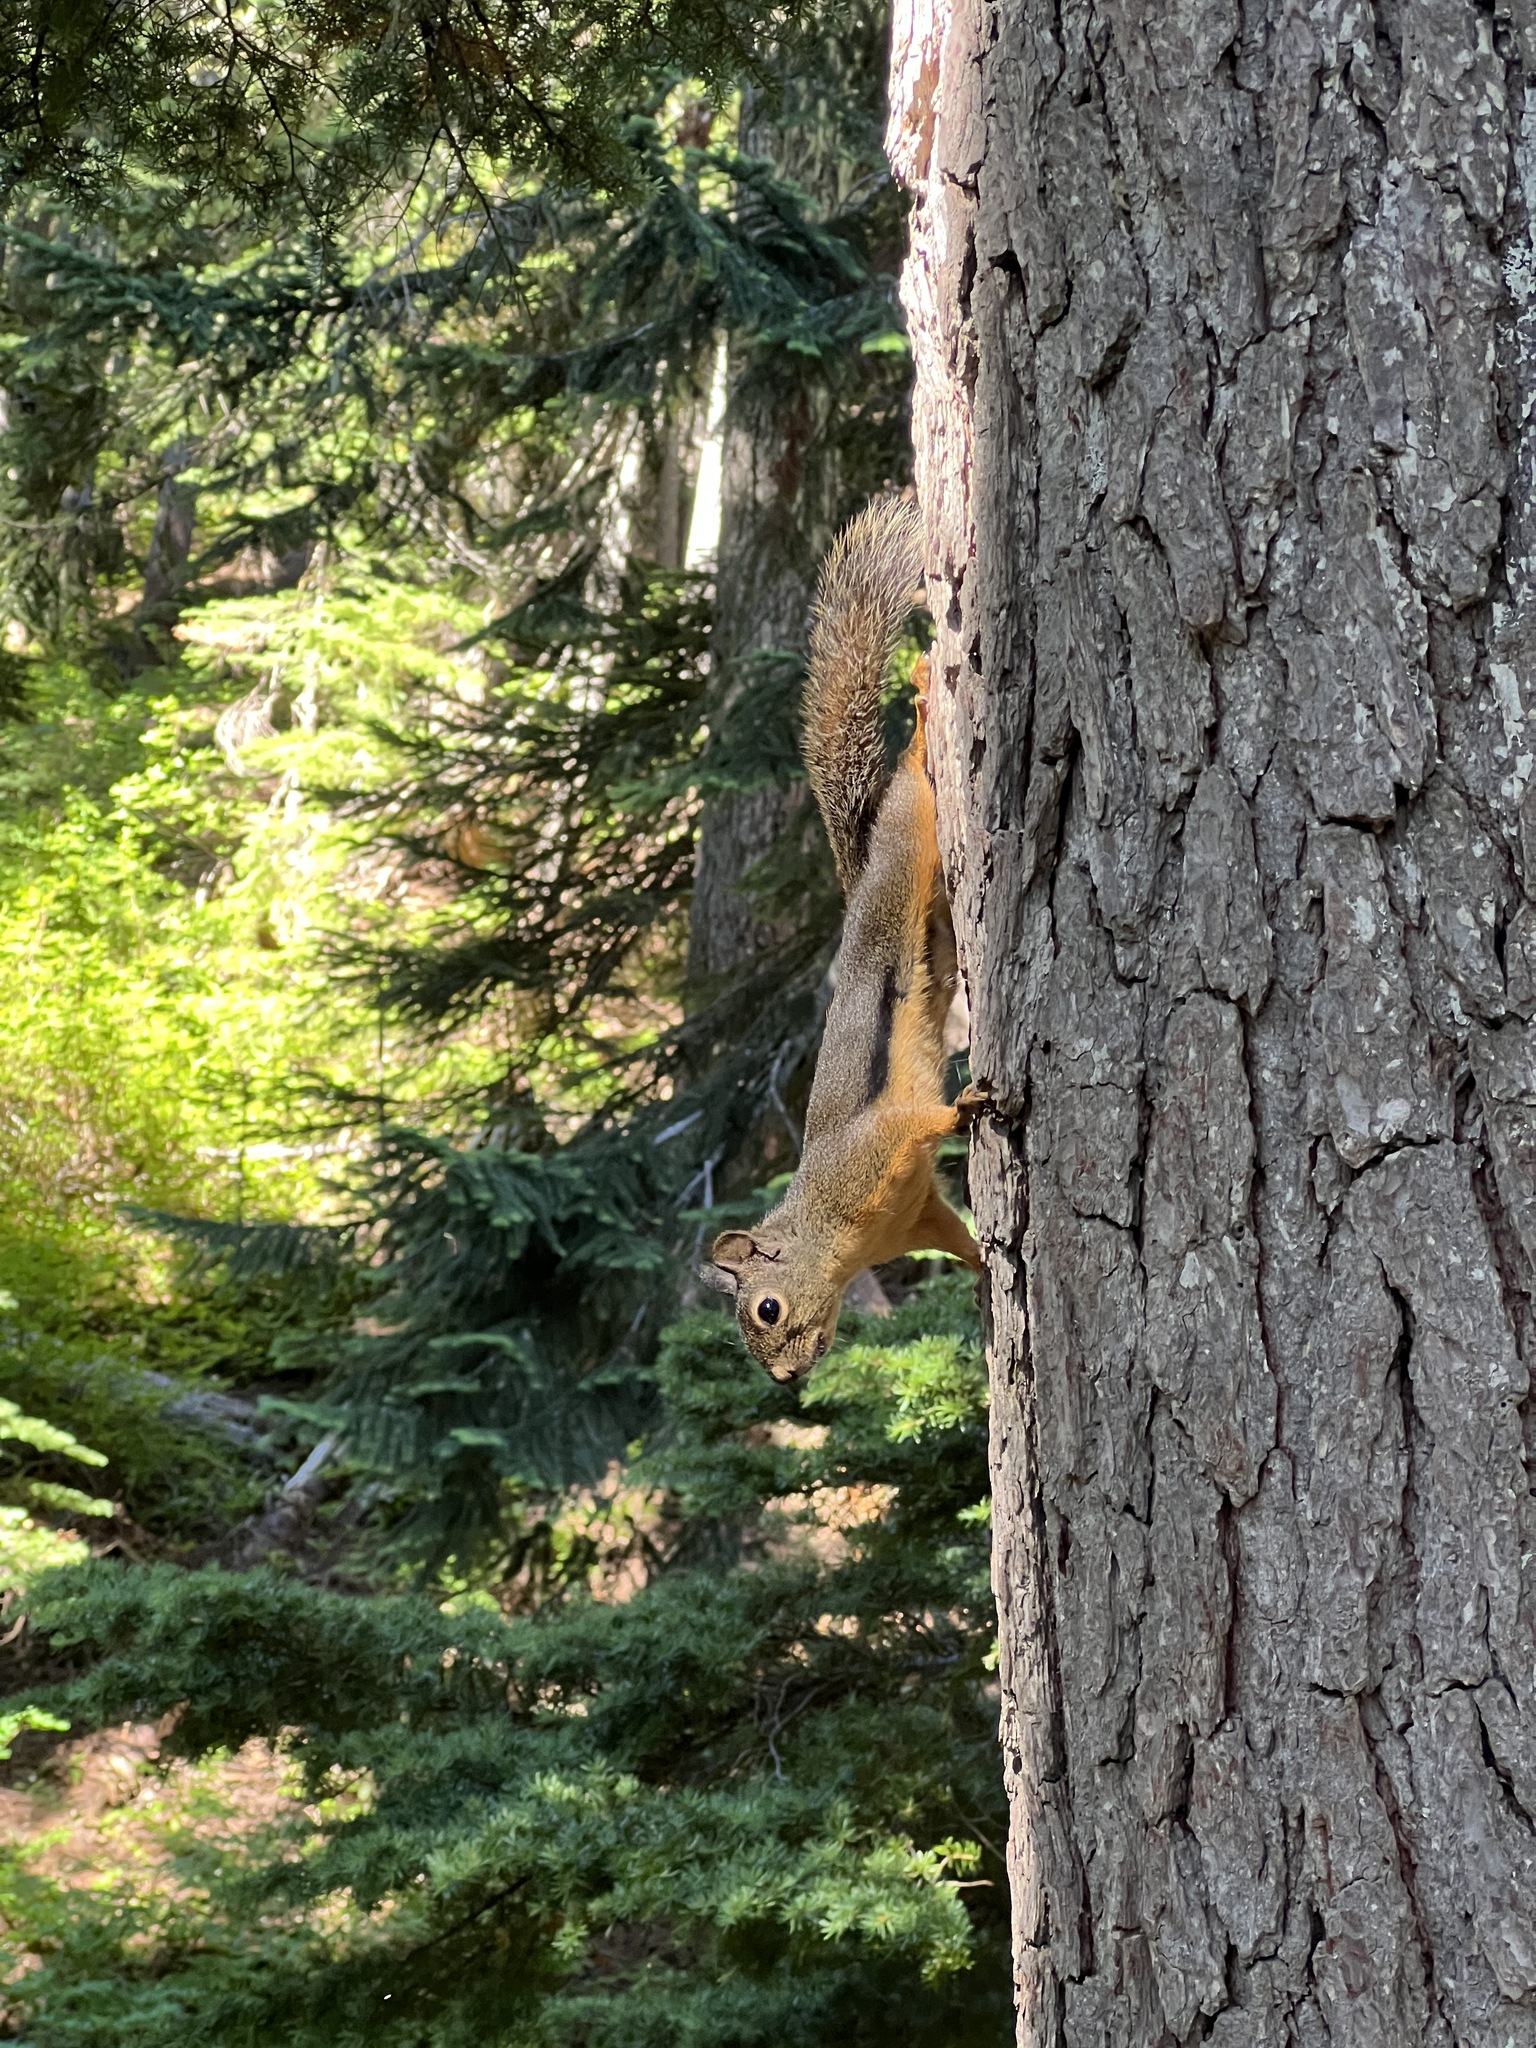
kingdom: Animalia
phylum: Chordata
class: Mammalia
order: Rodentia
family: Sciuridae
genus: Tamiasciurus
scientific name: Tamiasciurus douglasii
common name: Douglas's squirrel
